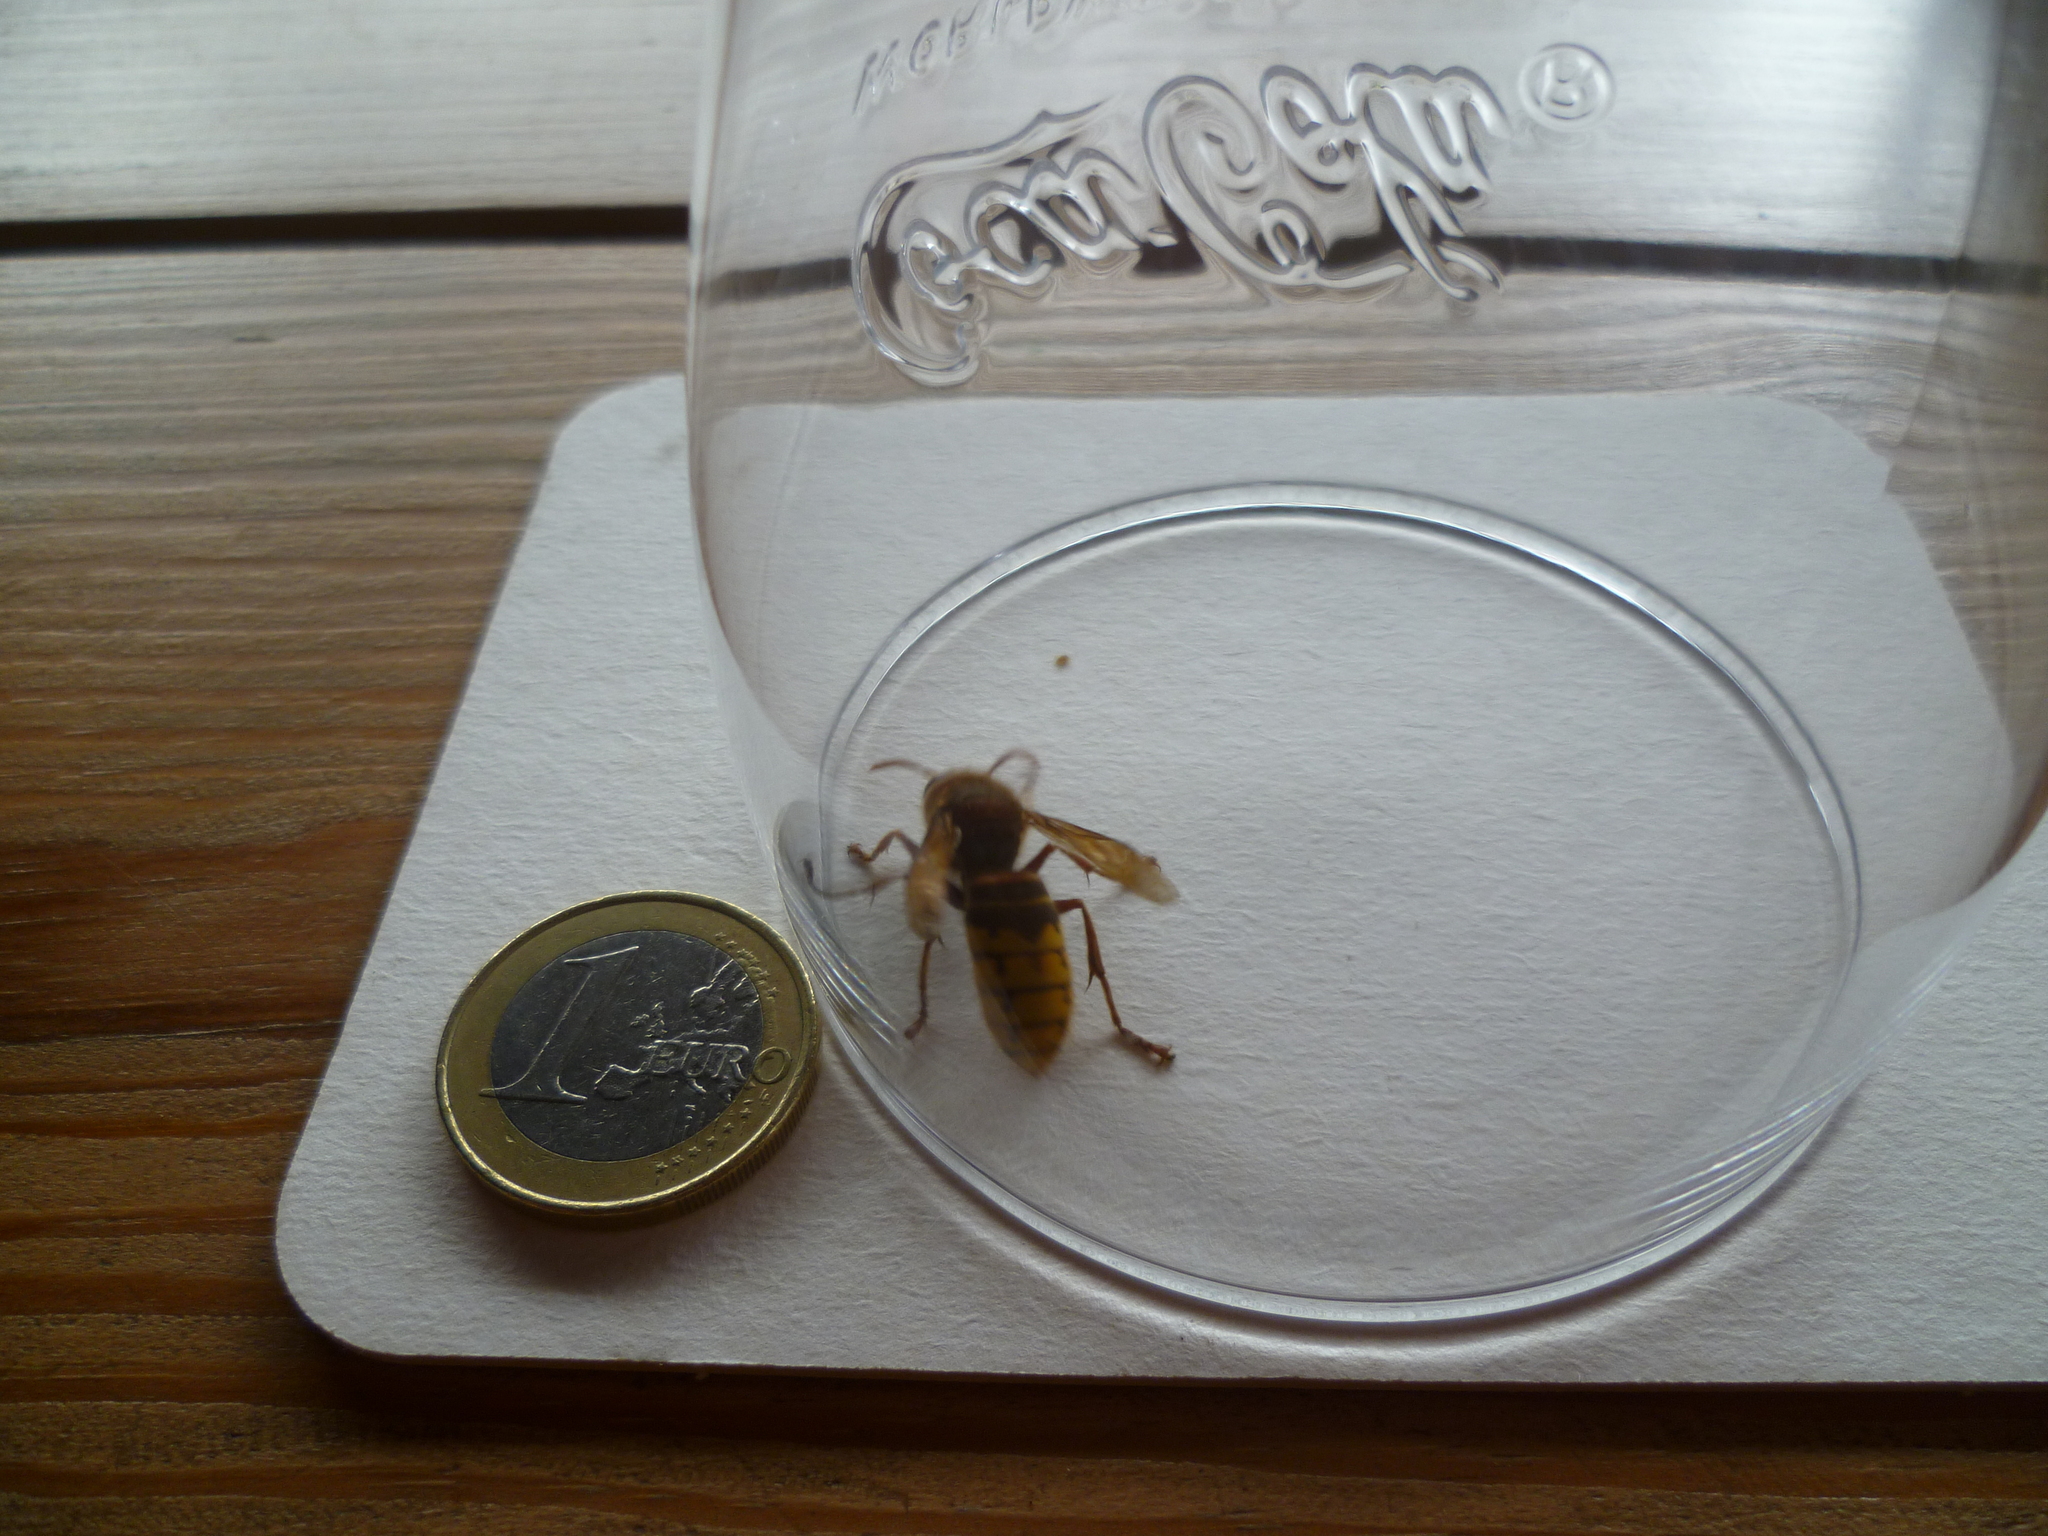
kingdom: Animalia
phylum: Arthropoda
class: Insecta
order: Hymenoptera
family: Vespidae
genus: Vespa
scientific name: Vespa crabro
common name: Hornet
